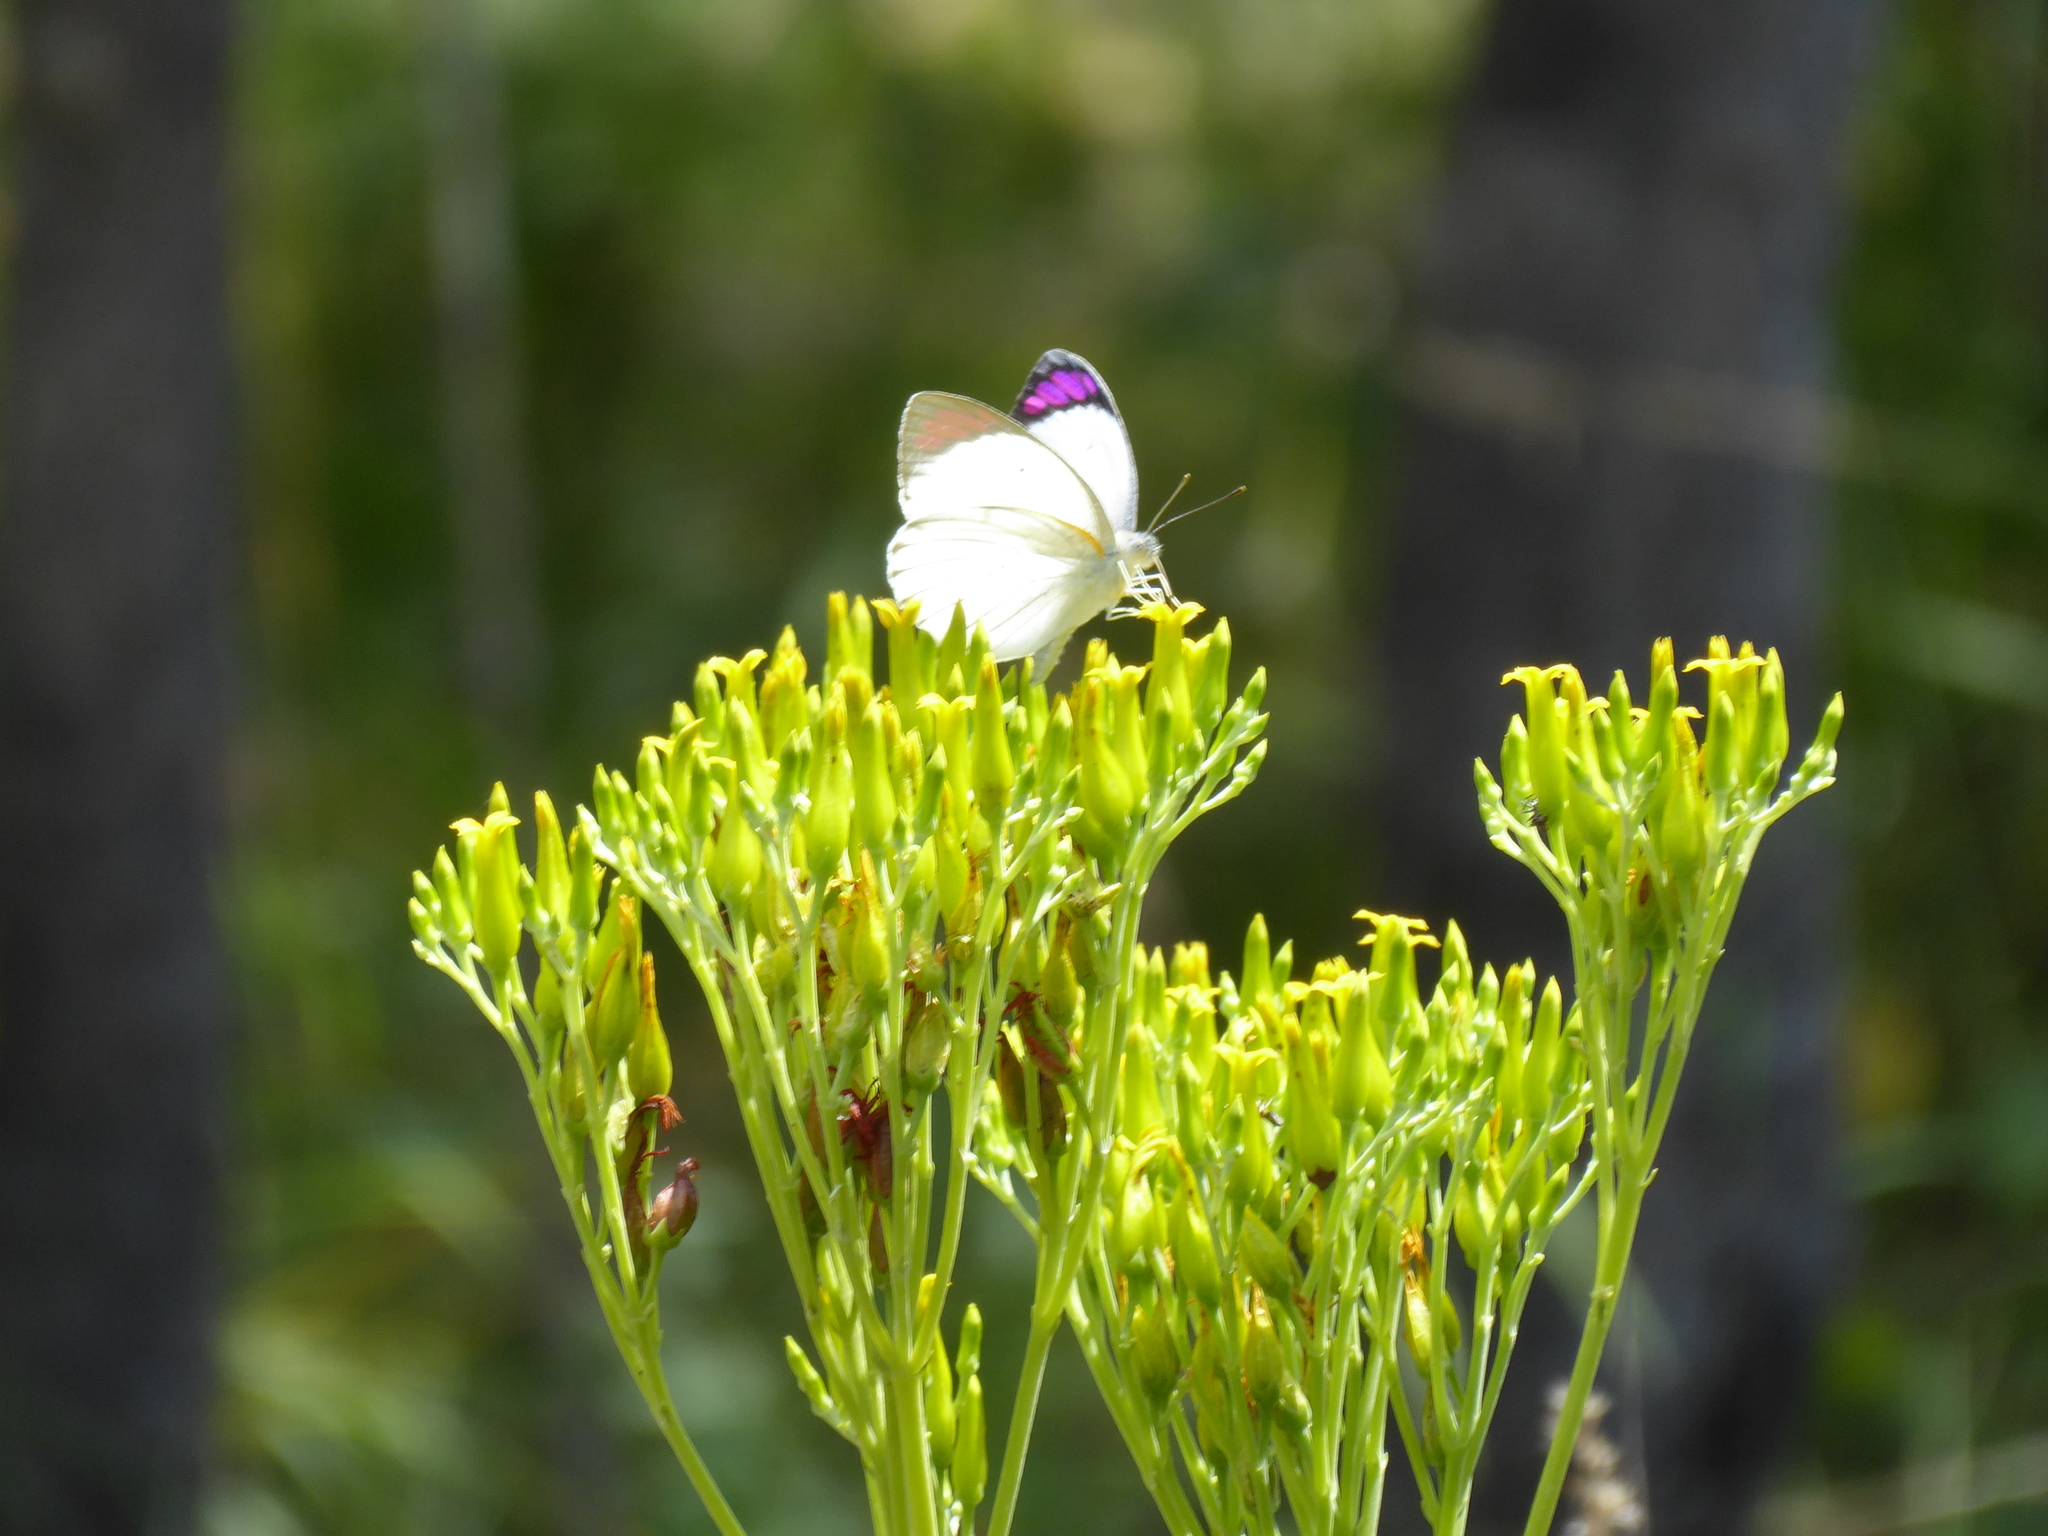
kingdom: Animalia
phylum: Arthropoda
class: Insecta
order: Lepidoptera
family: Pieridae
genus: Colotis
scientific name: Colotis ione
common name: Bushveld purple tip
